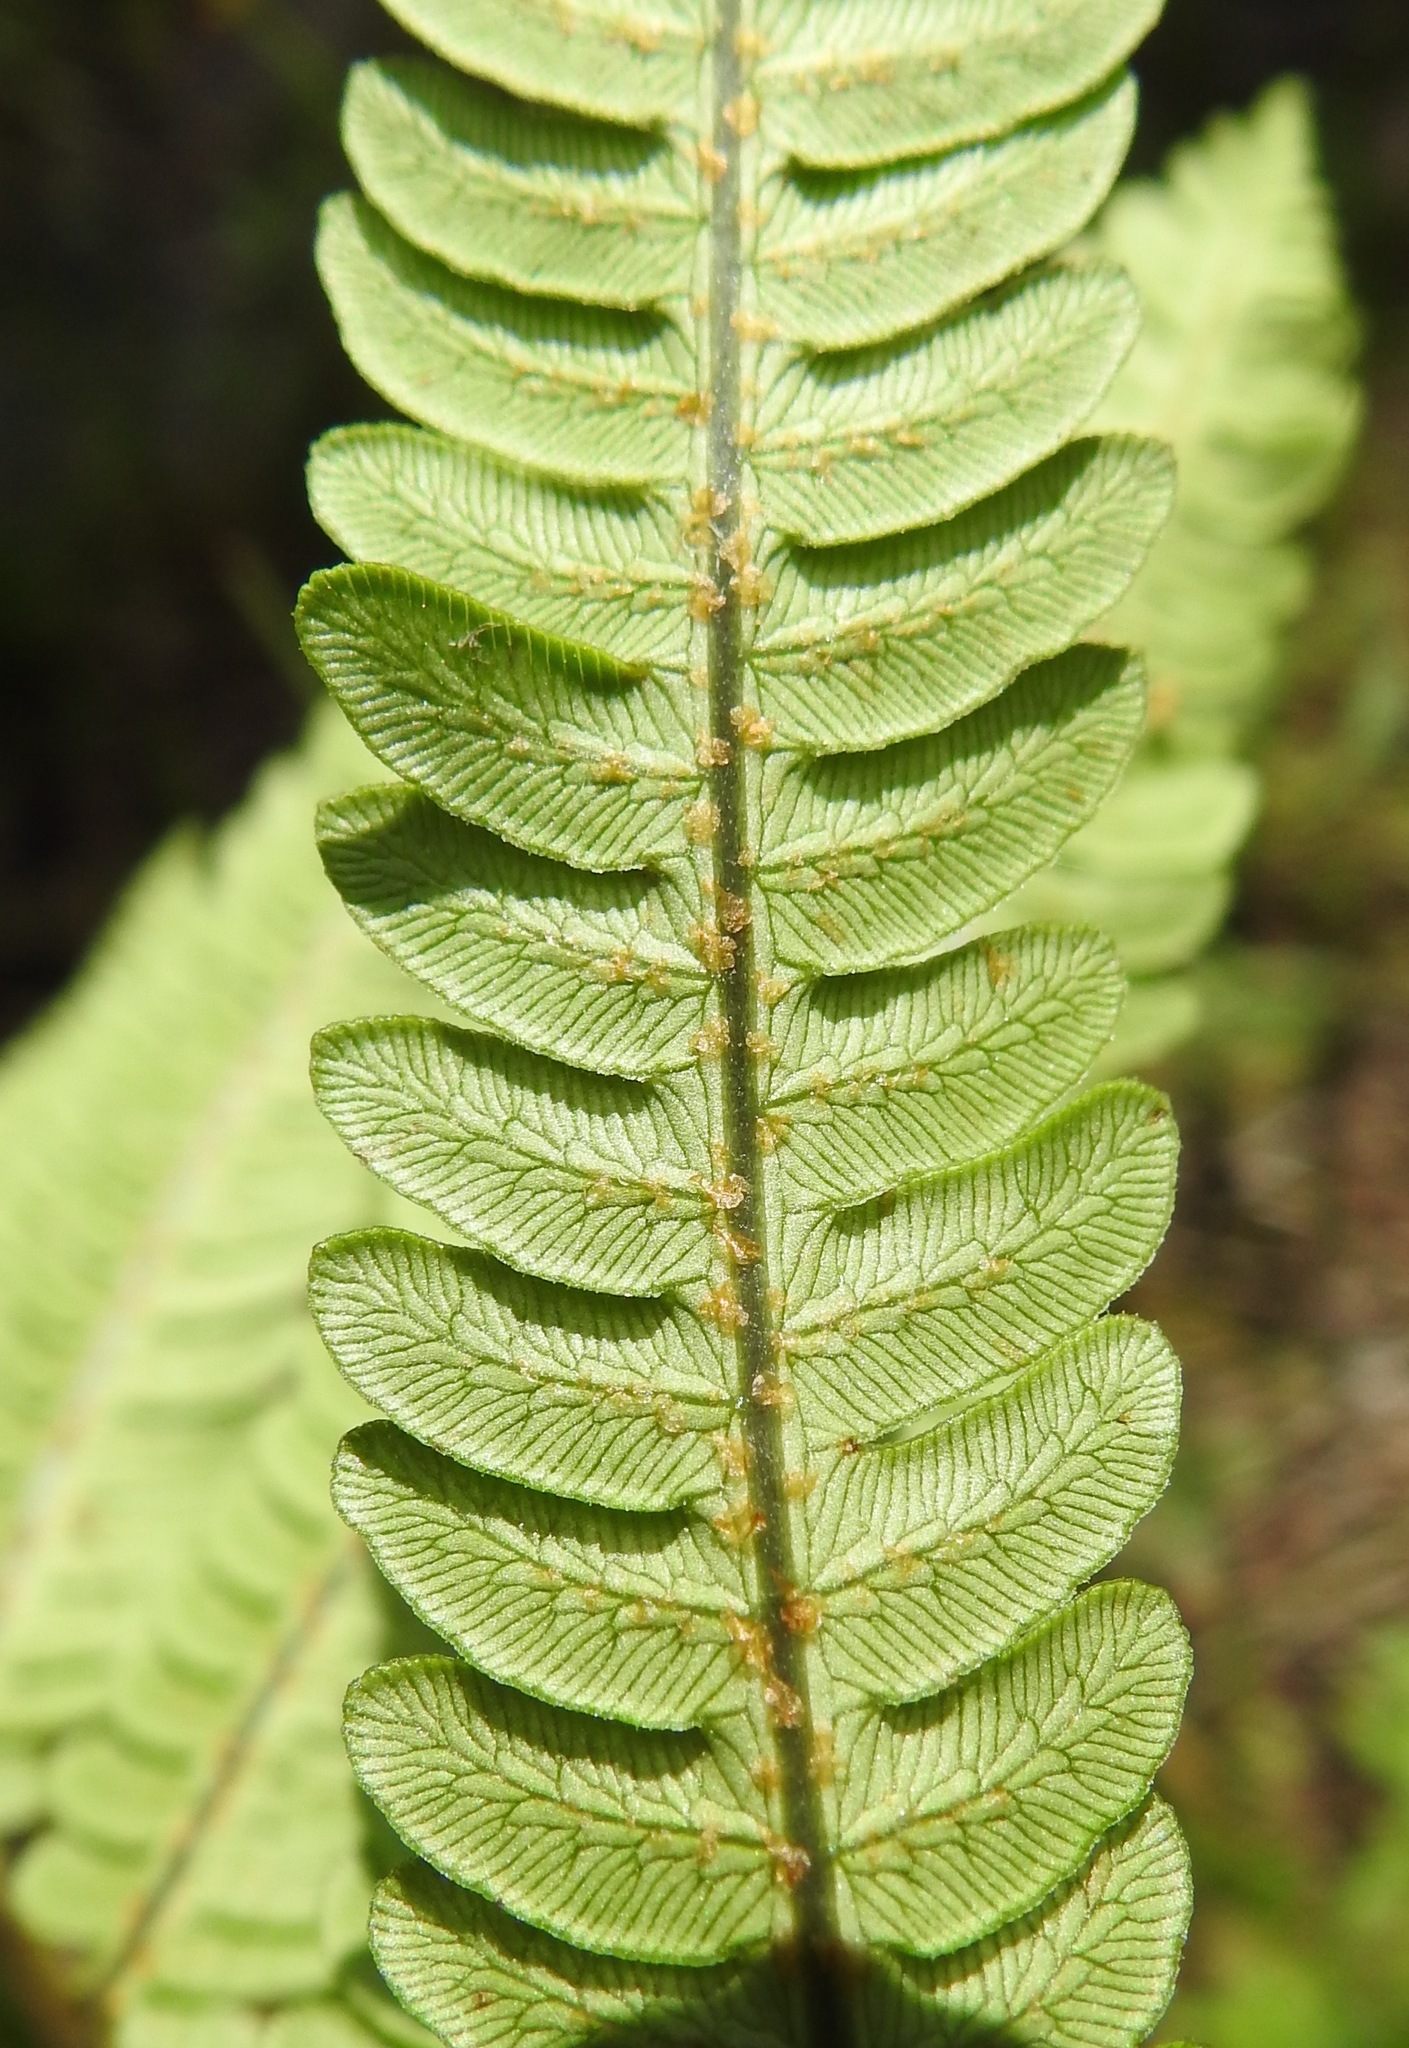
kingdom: Plantae
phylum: Tracheophyta
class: Polypodiopsida
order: Polypodiales
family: Blechnaceae
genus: Anchistea
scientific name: Anchistea virginica
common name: Virginia chain fern
